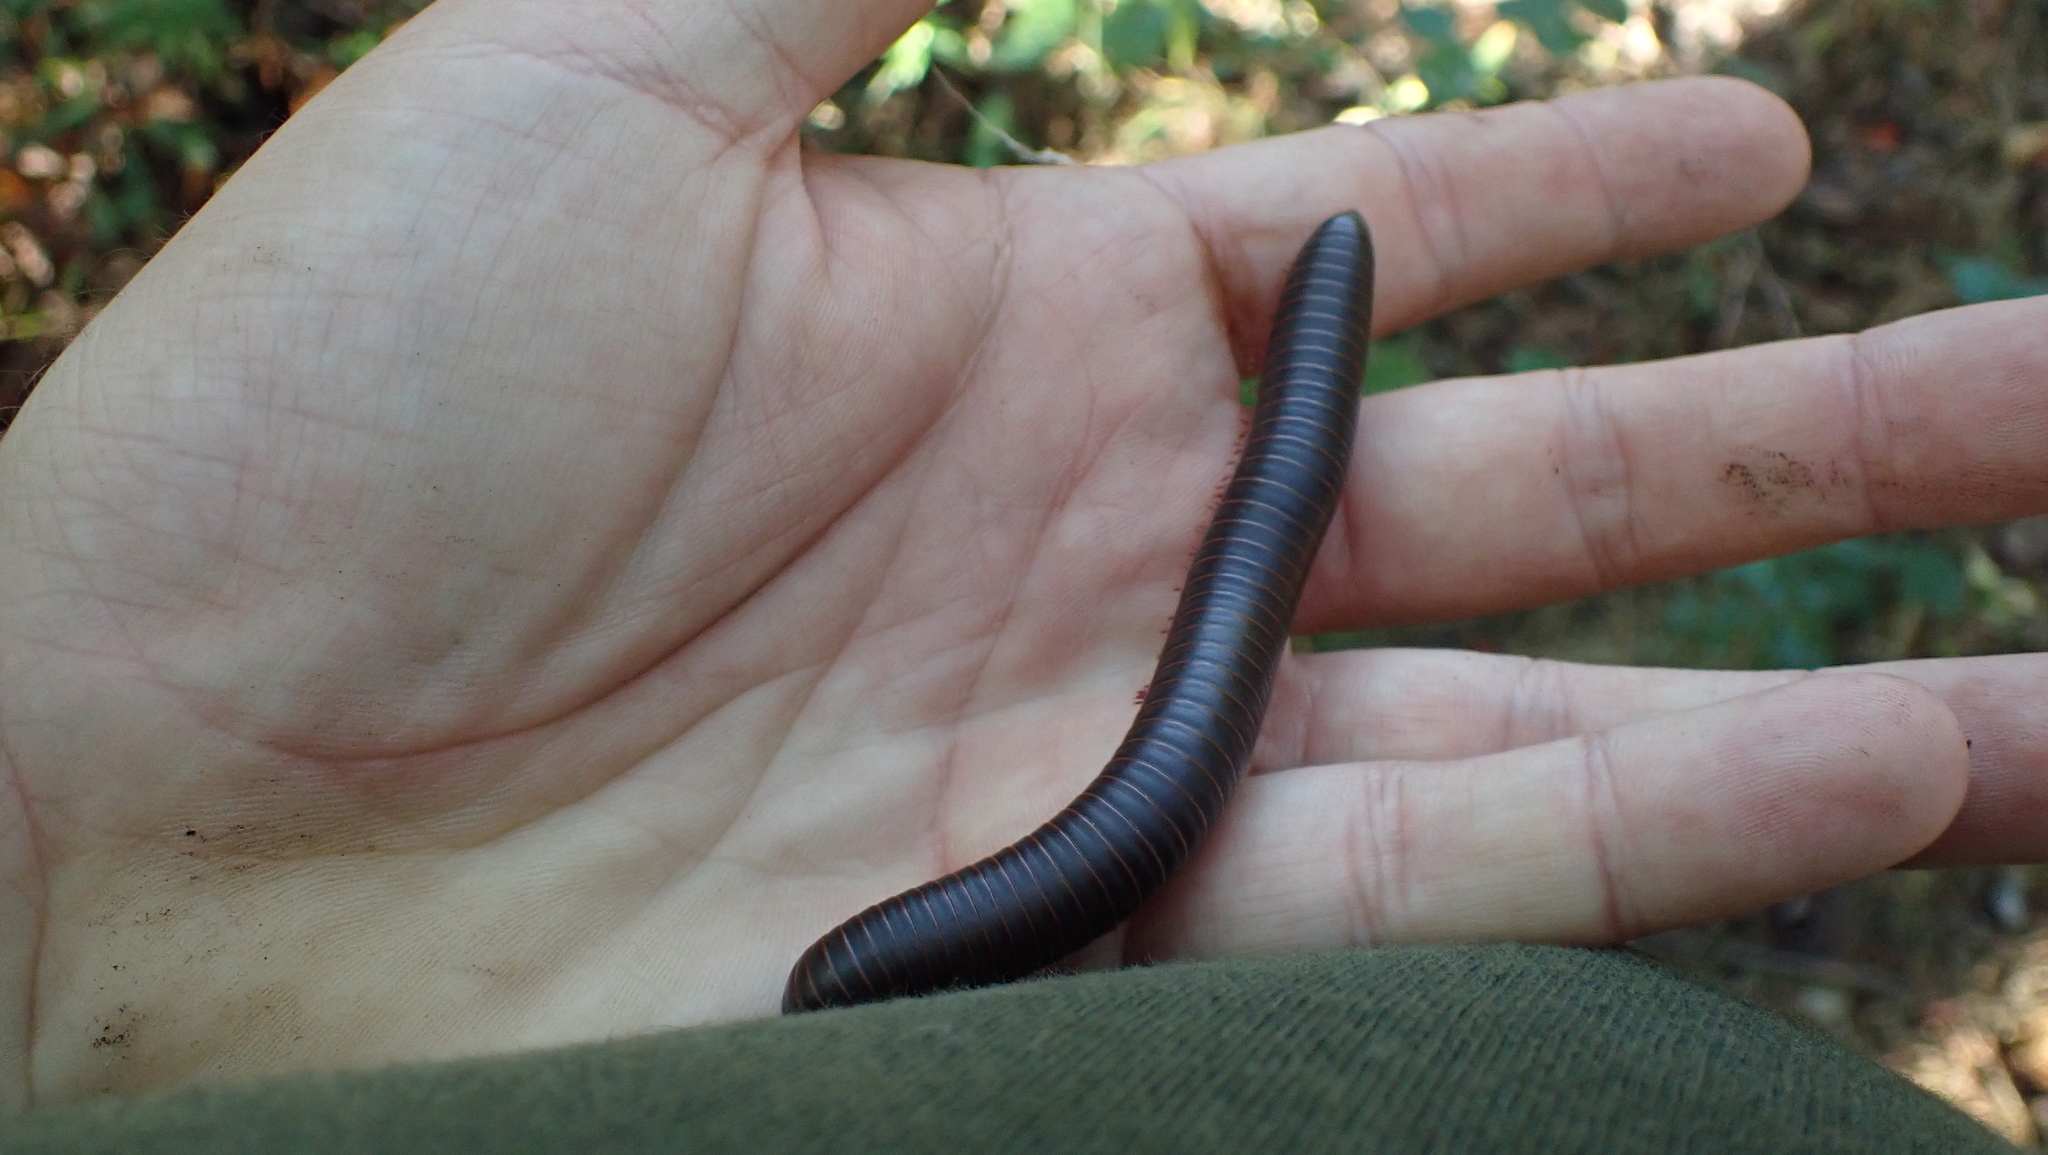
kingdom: Animalia
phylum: Arthropoda
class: Diplopoda
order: Spirobolida
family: Spirobolidae
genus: Narceus
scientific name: Narceus
